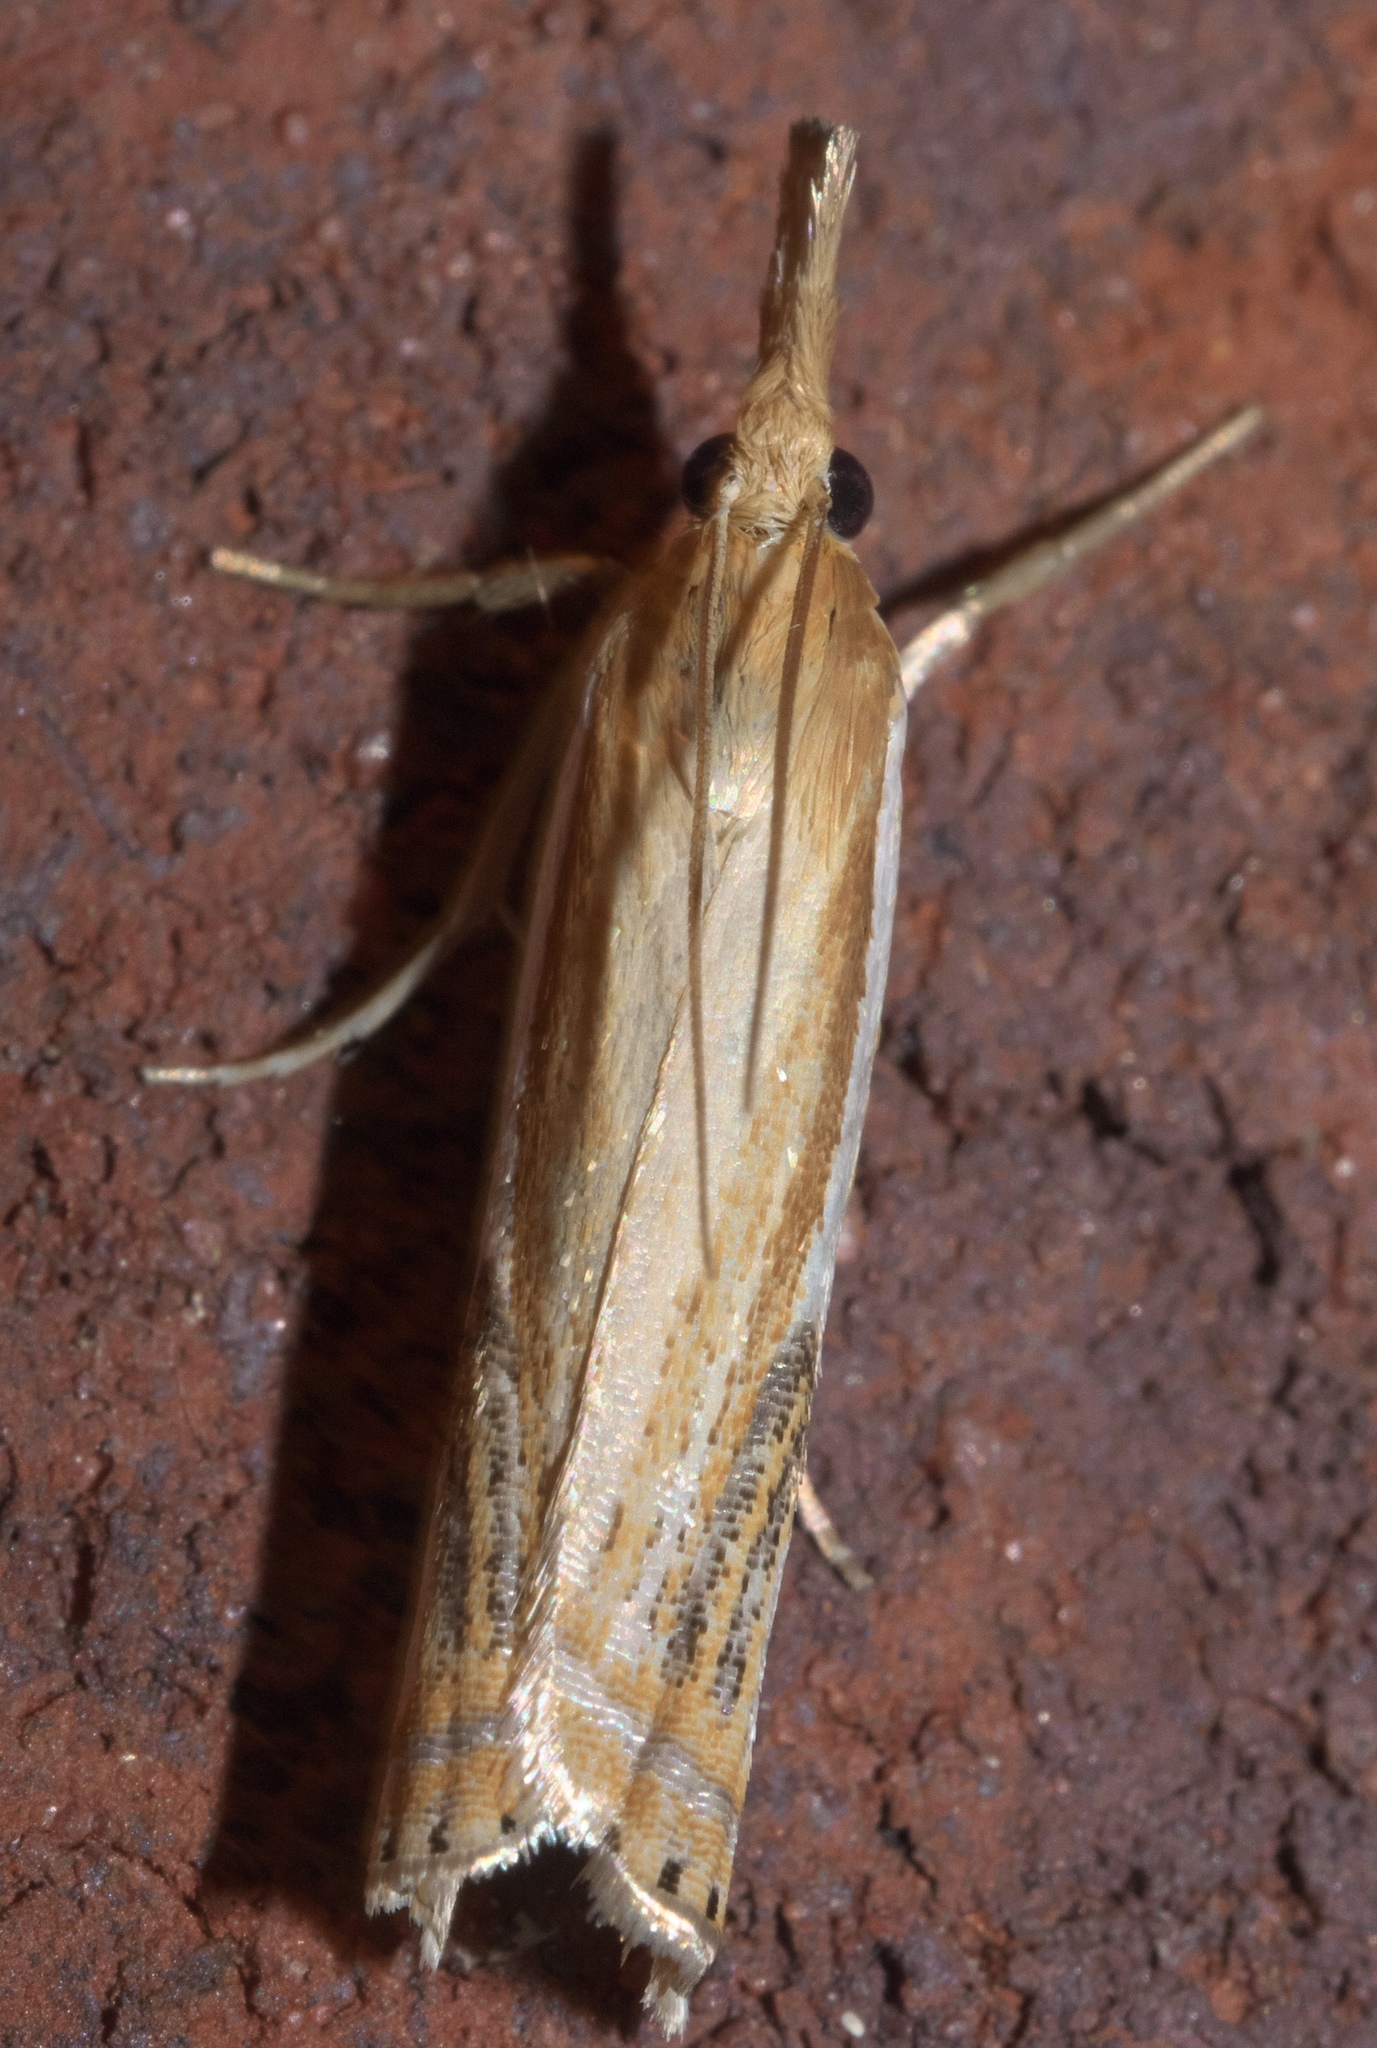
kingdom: Animalia
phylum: Arthropoda
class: Insecta
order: Lepidoptera
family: Crambidae
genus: Crambus
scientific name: Crambus agitatellus
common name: Double-banded grass-veneer
